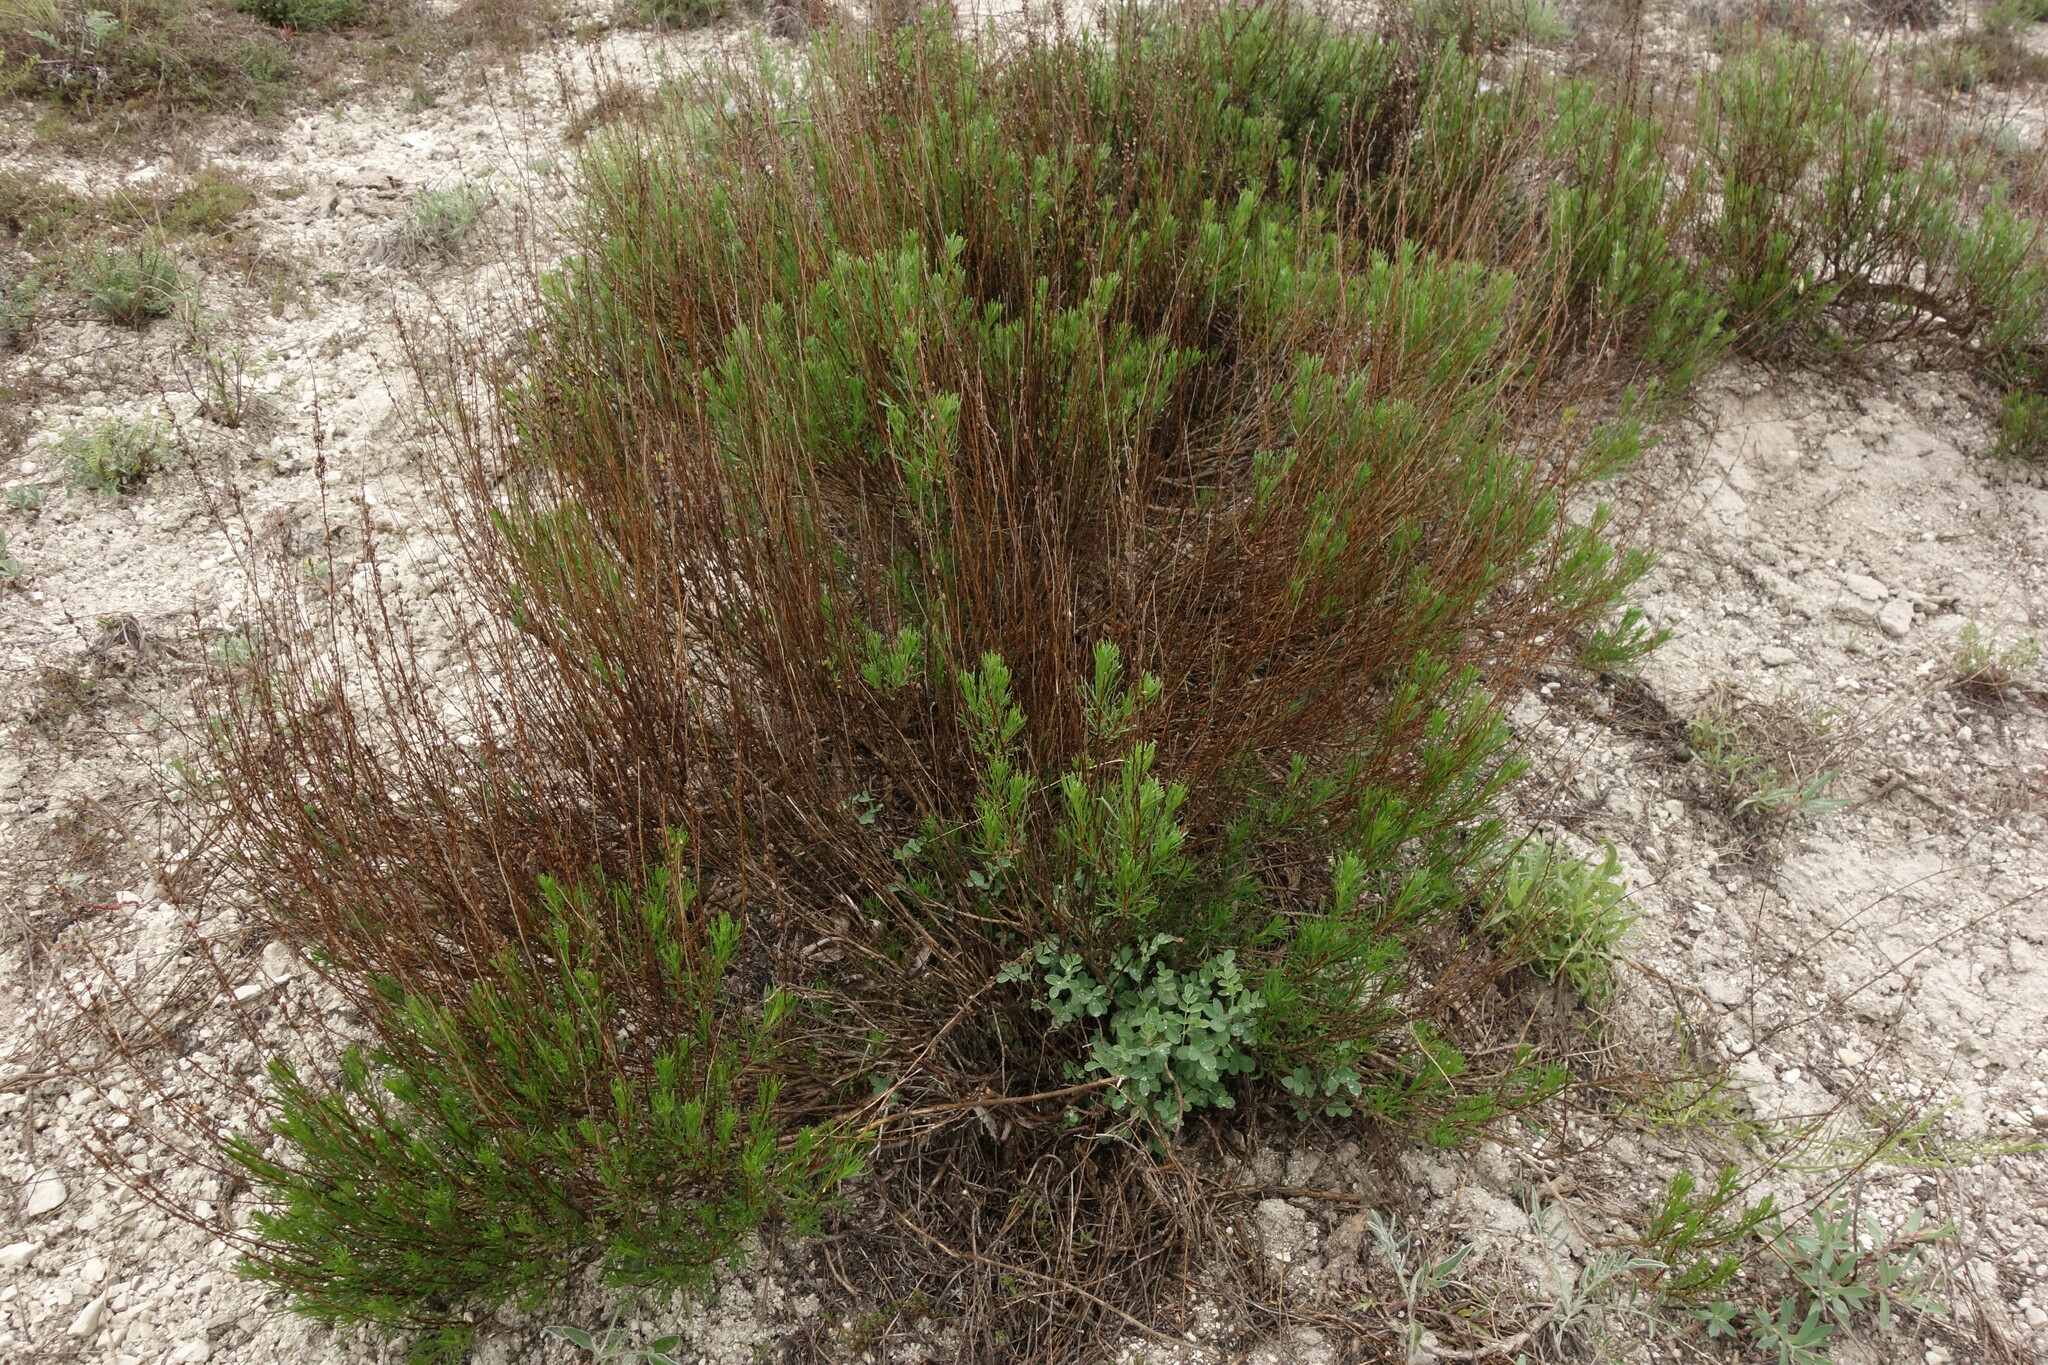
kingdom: Plantae
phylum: Tracheophyta
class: Magnoliopsida
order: Asterales
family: Asteraceae
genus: Artemisia
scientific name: Artemisia salsoloides
